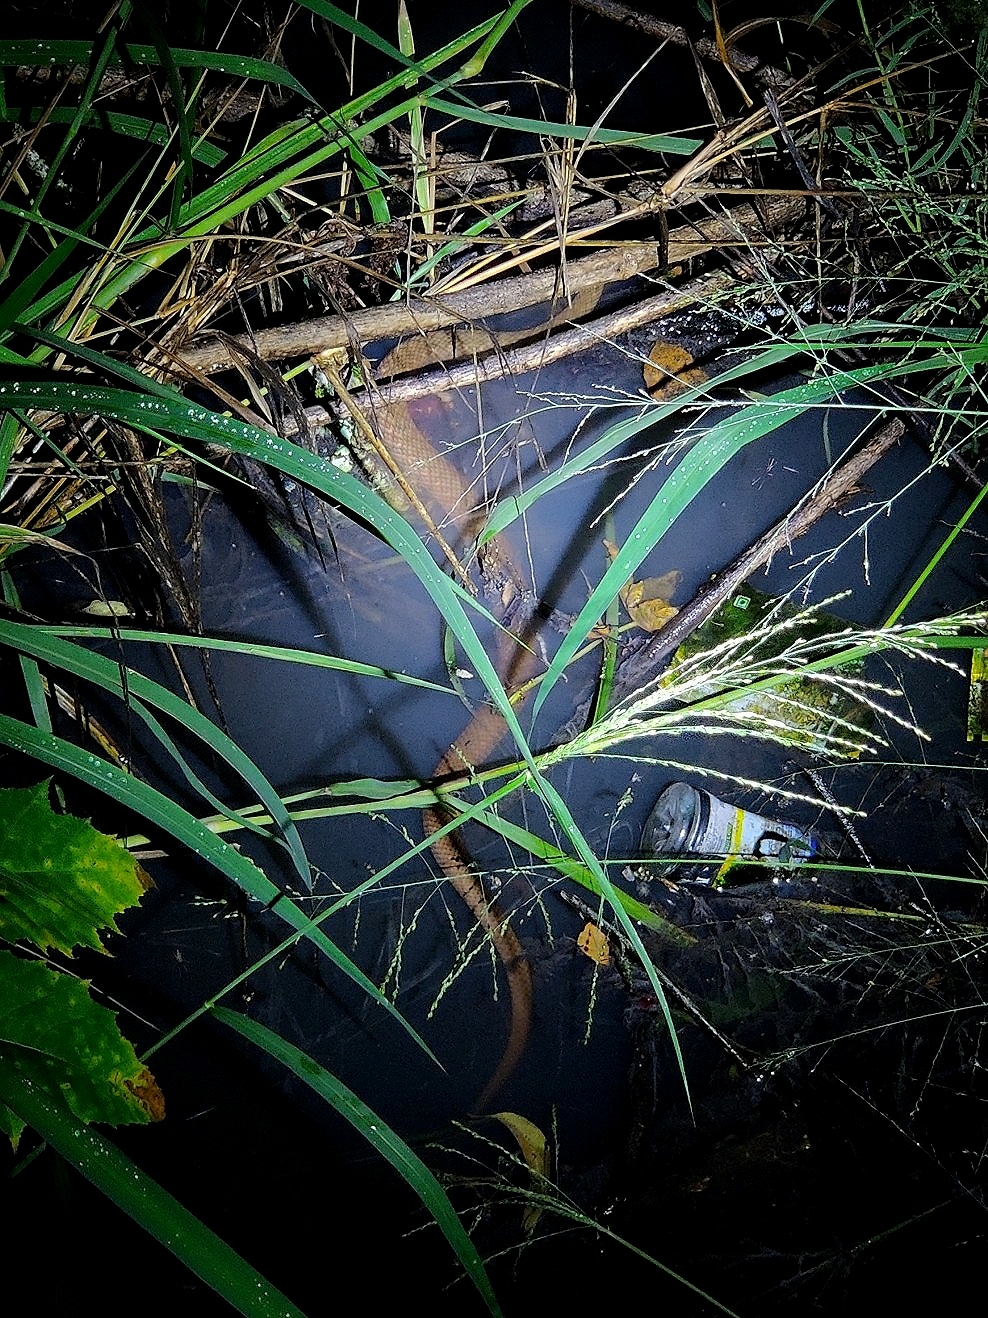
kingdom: Animalia
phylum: Chordata
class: Squamata
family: Colubridae
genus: Fowlea
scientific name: Fowlea piscator
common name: Asiatic water snake
